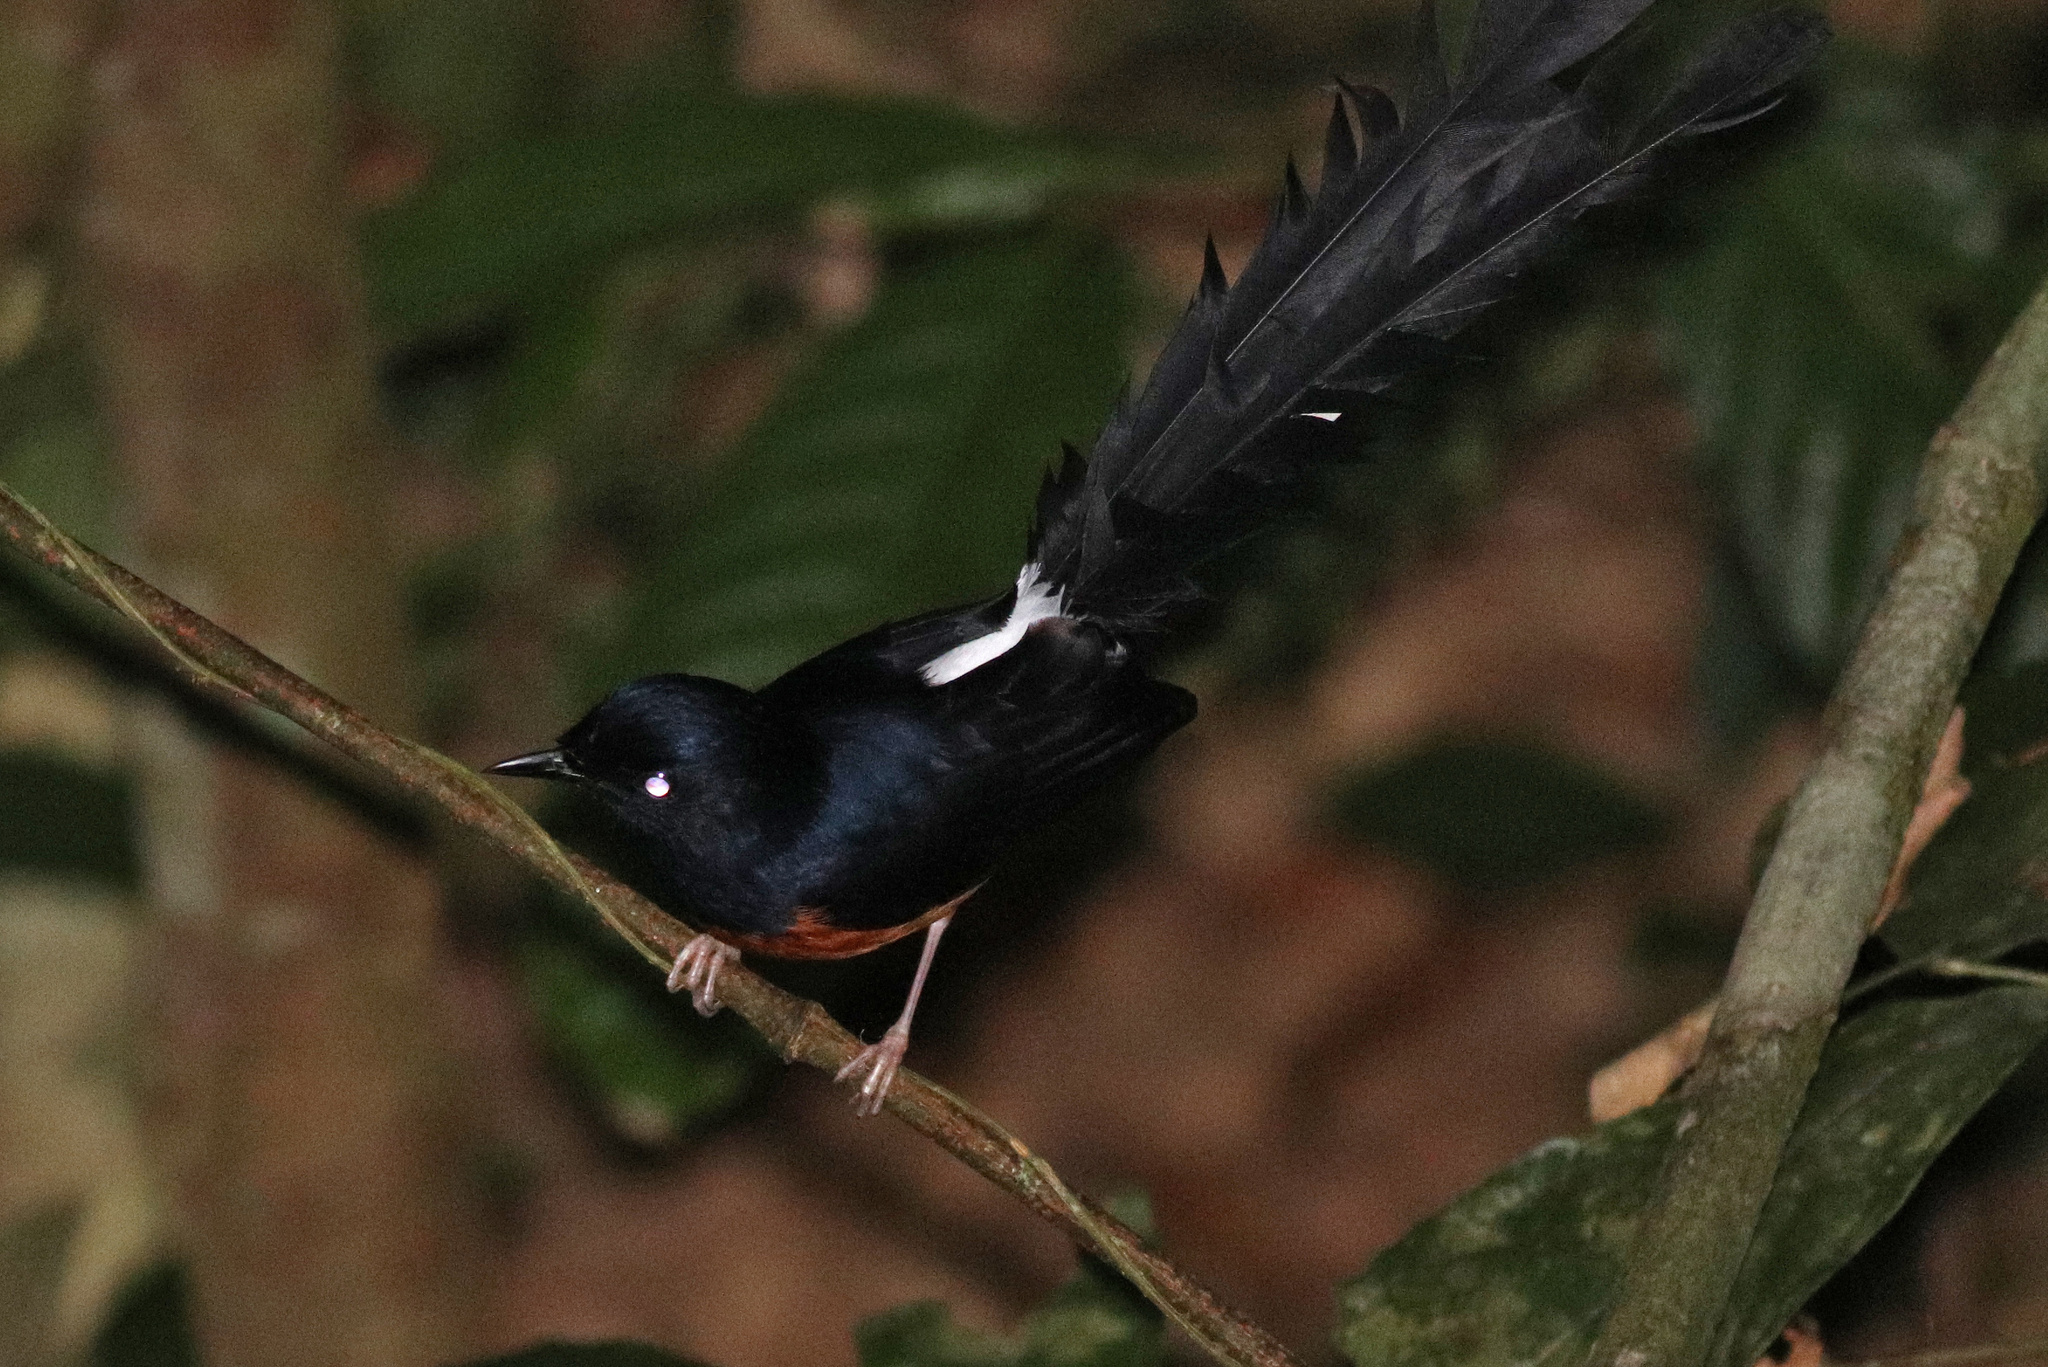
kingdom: Animalia
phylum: Chordata
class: Aves
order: Passeriformes
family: Muscicapidae
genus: Copsychus
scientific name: Copsychus malabaricus
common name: White-rumped shama
